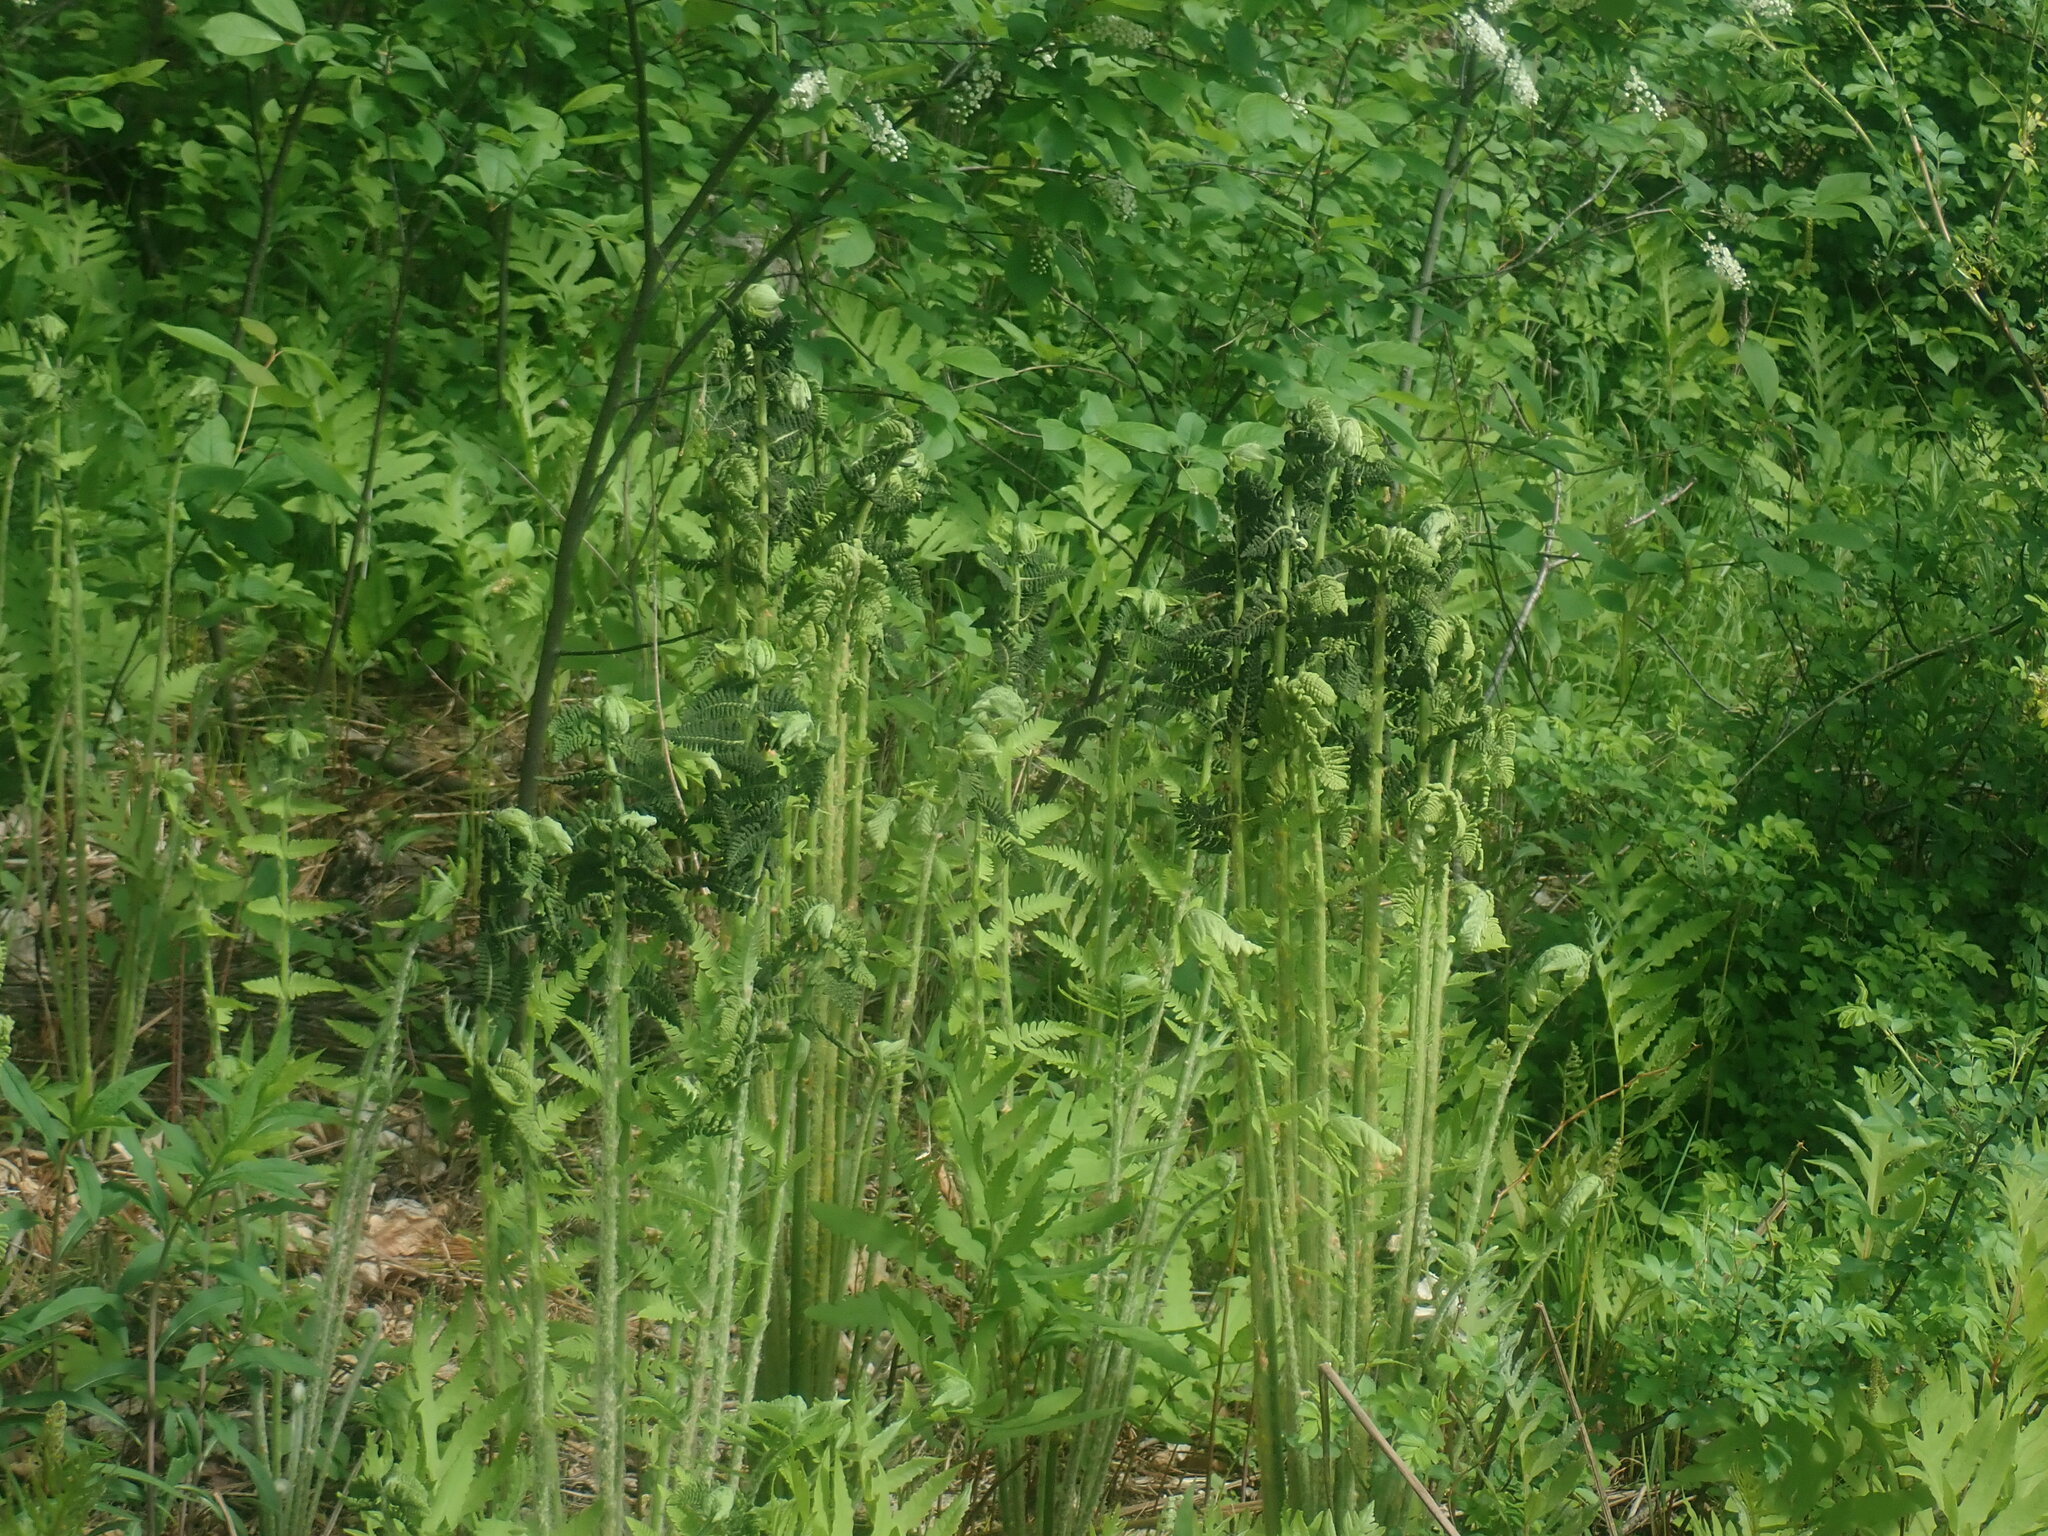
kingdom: Plantae
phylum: Tracheophyta
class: Polypodiopsida
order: Osmundales
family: Osmundaceae
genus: Claytosmunda
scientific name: Claytosmunda claytoniana
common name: Clayton's fern
